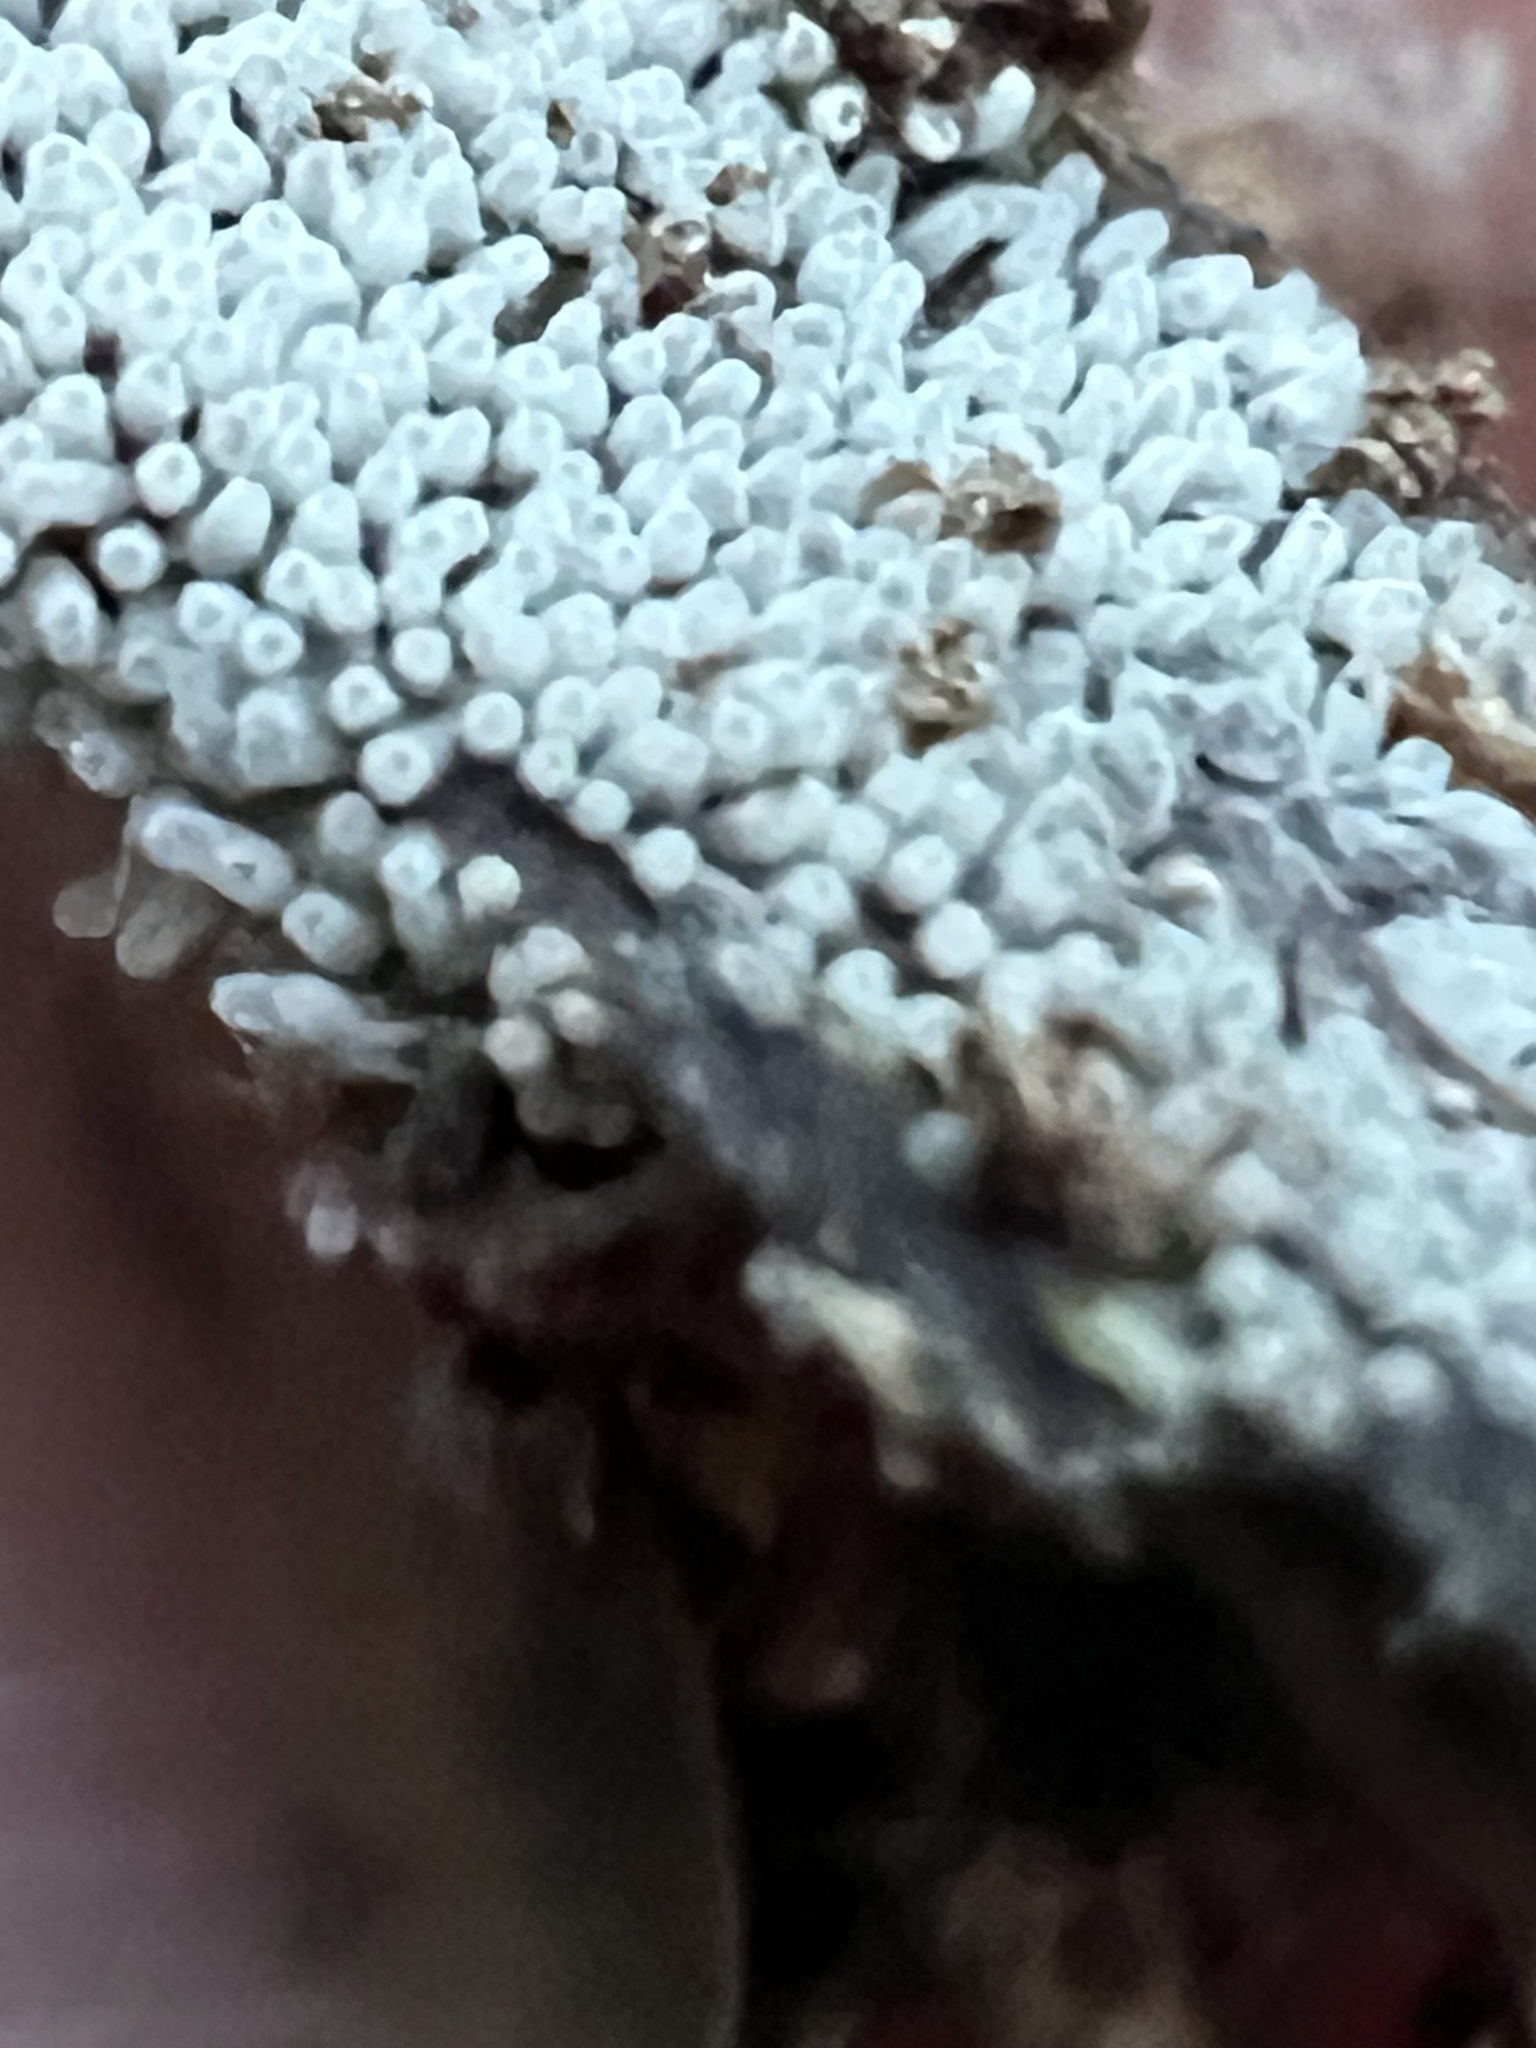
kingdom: Protozoa
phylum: Mycetozoa
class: Protosteliomycetes
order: Ceratiomyxales
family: Ceratiomyxaceae
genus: Ceratiomyxa
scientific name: Ceratiomyxa fruticulosa
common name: Honeycomb coral slime mold
